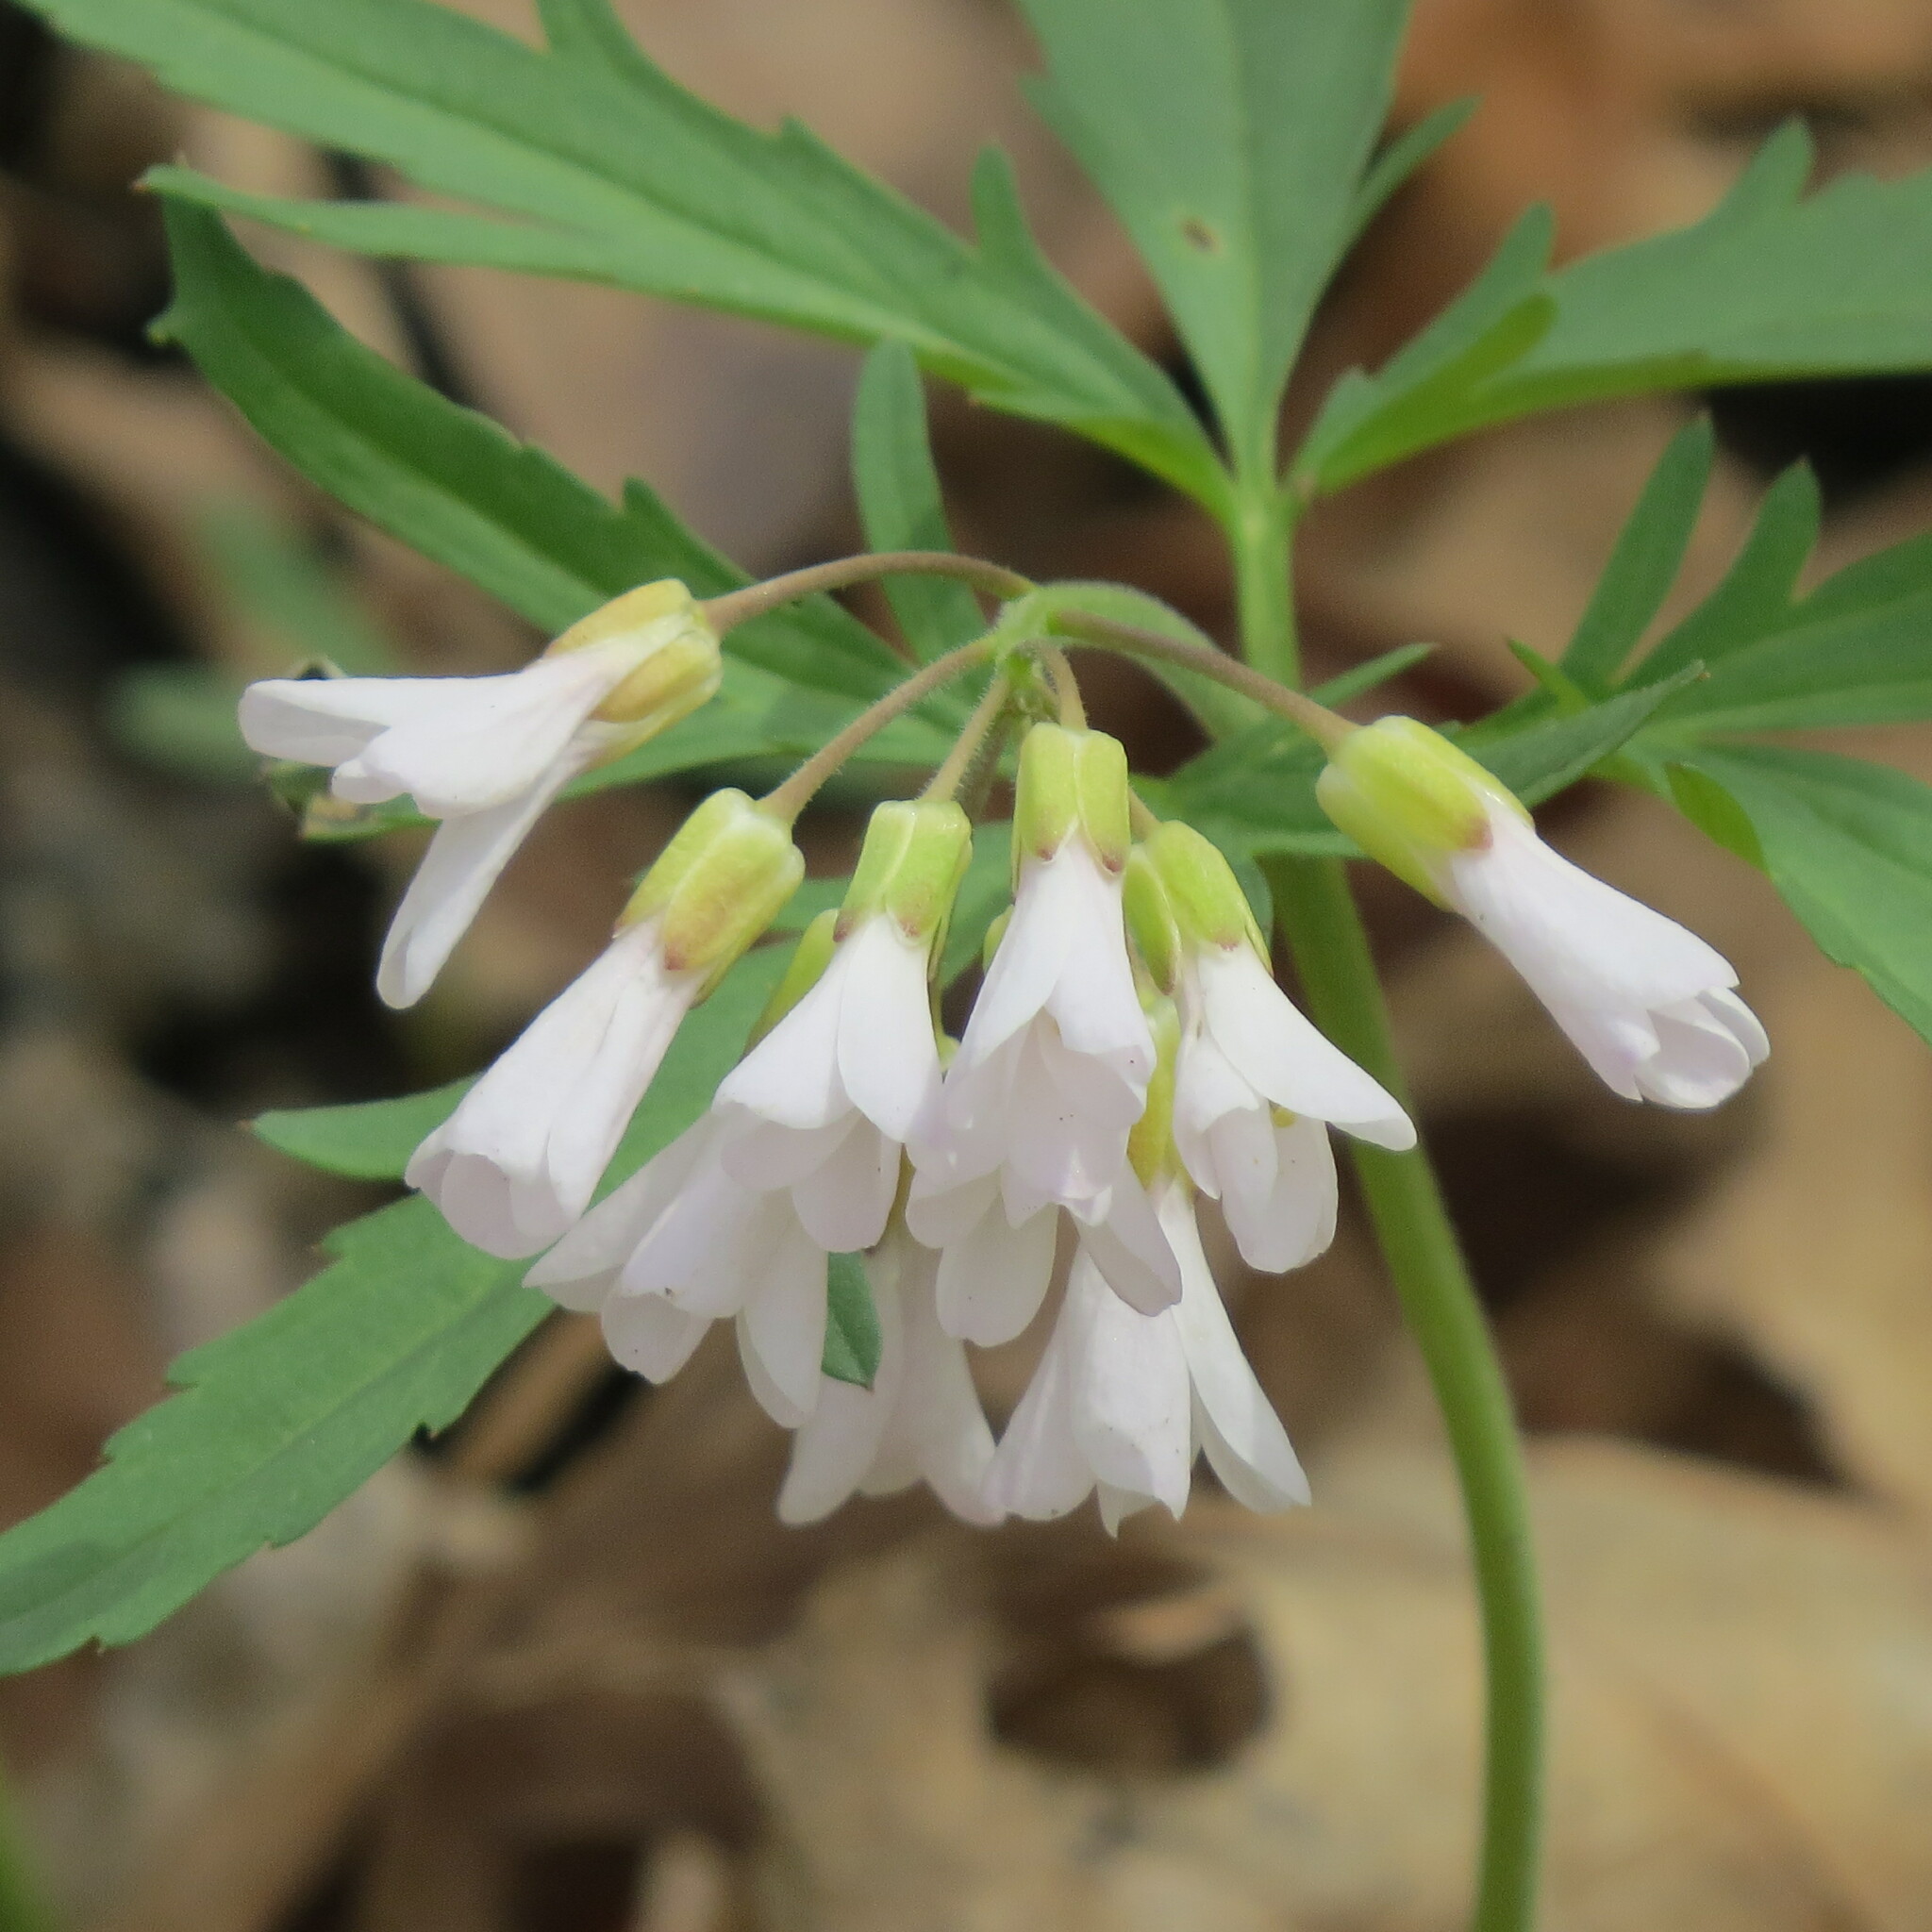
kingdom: Plantae
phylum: Tracheophyta
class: Magnoliopsida
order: Brassicales
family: Brassicaceae
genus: Cardamine
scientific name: Cardamine concatenata
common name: Cut-leaf toothcup
